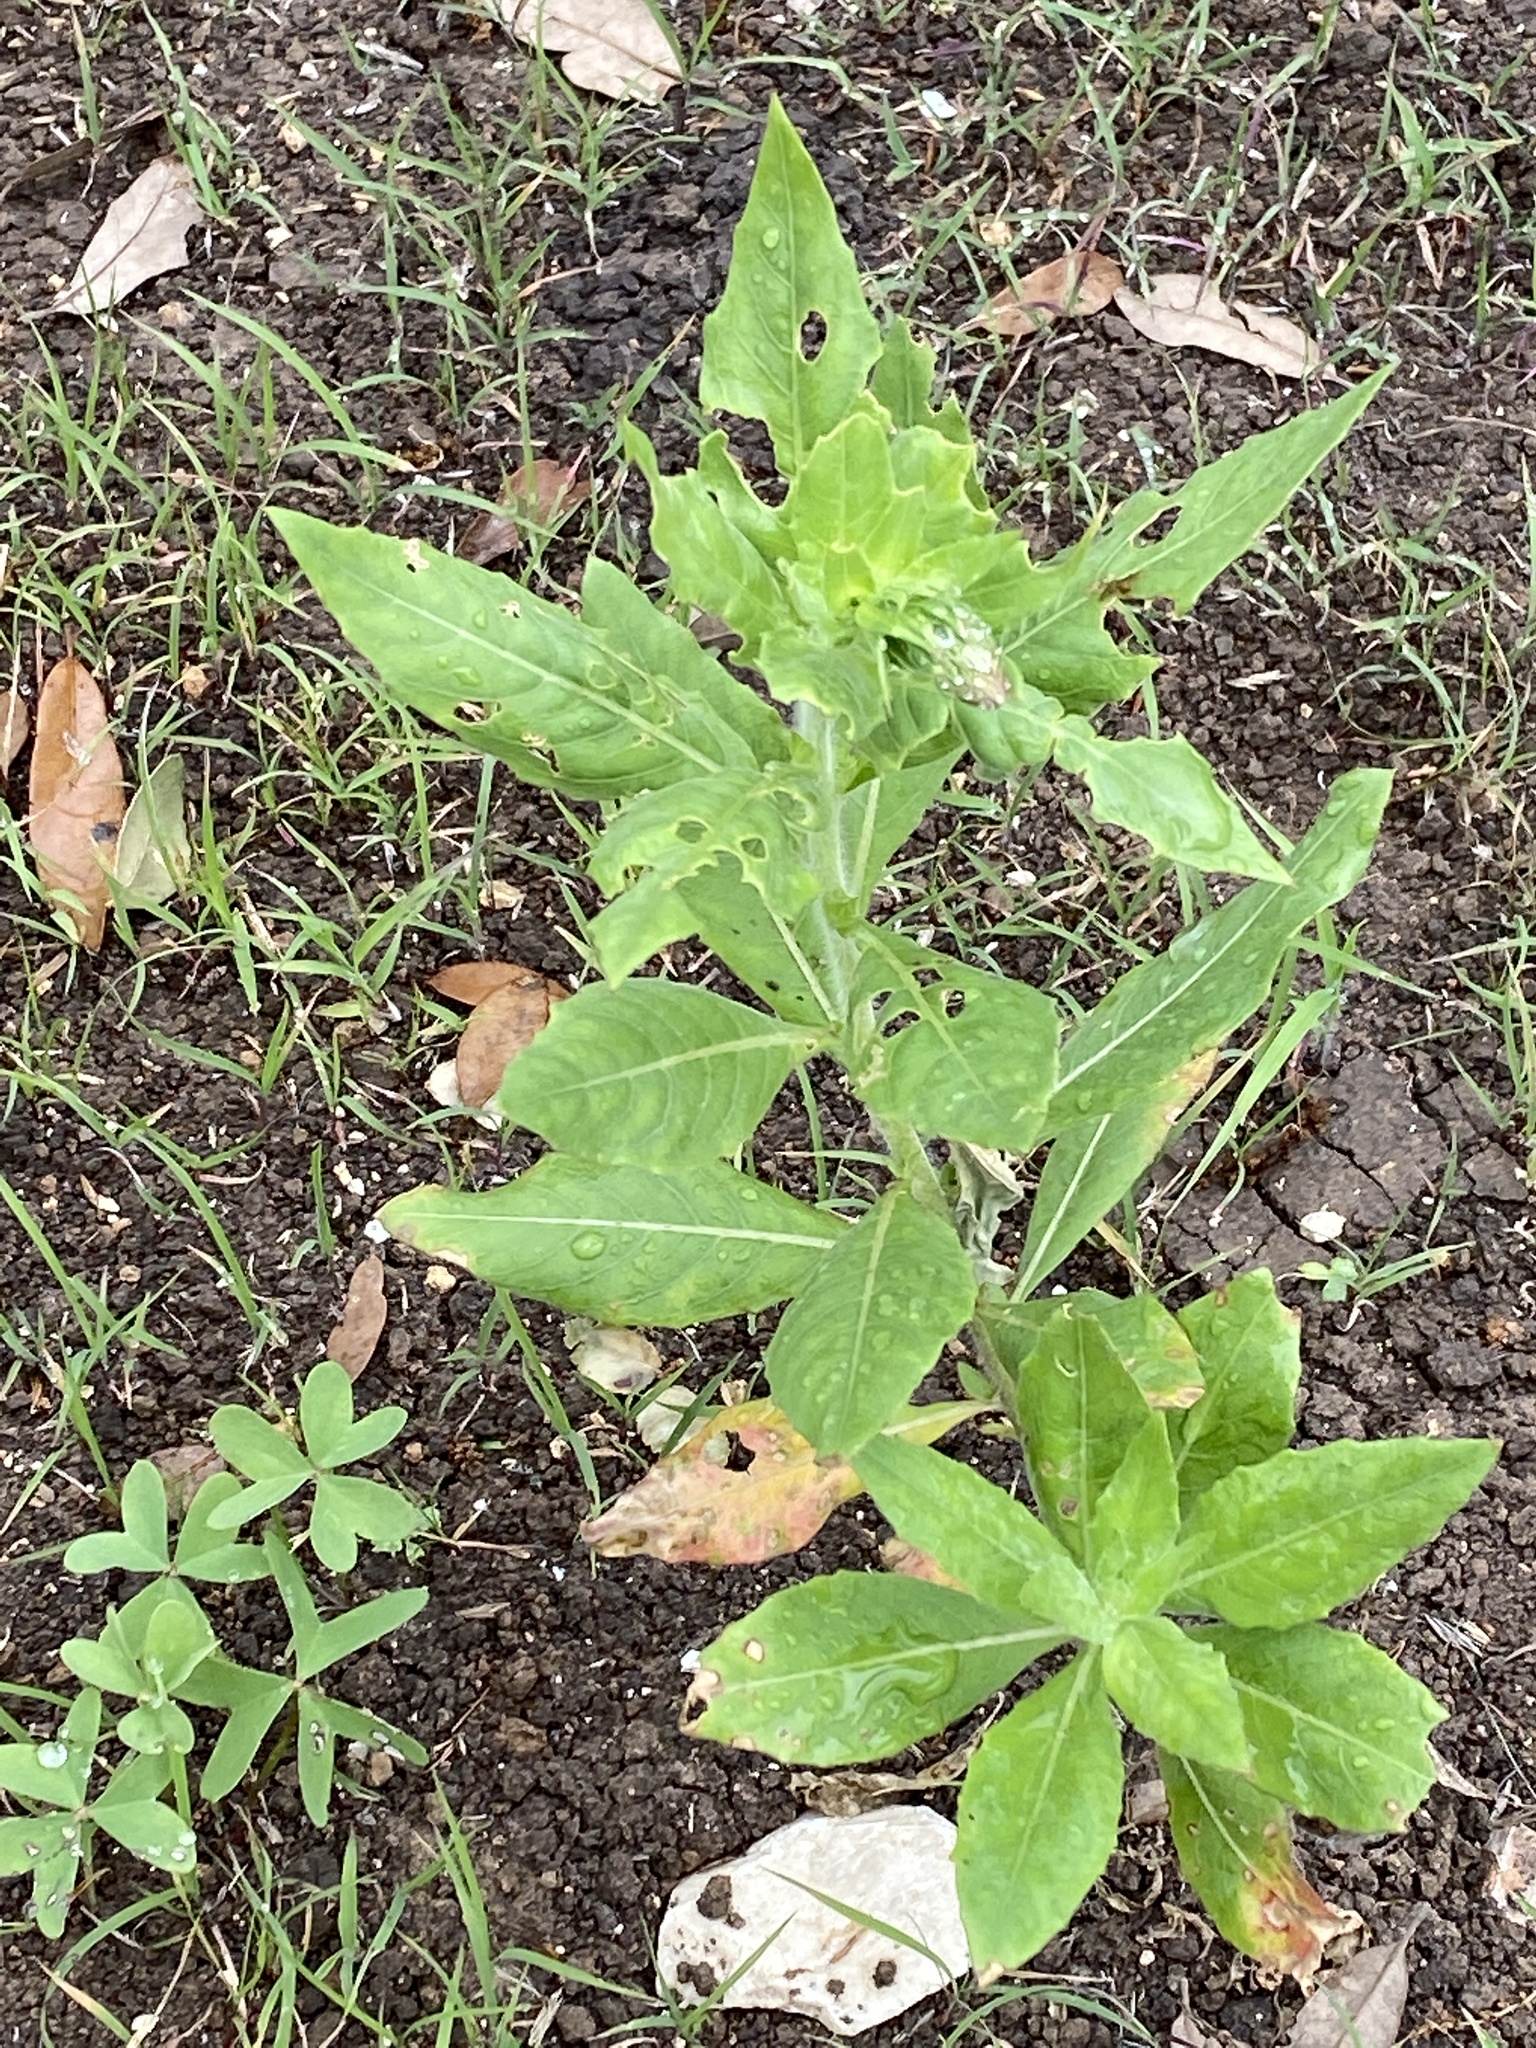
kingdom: Plantae
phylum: Tracheophyta
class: Magnoliopsida
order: Myrtales
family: Onagraceae
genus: Oenothera
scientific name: Oenothera curtiflora
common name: Velvetweed
